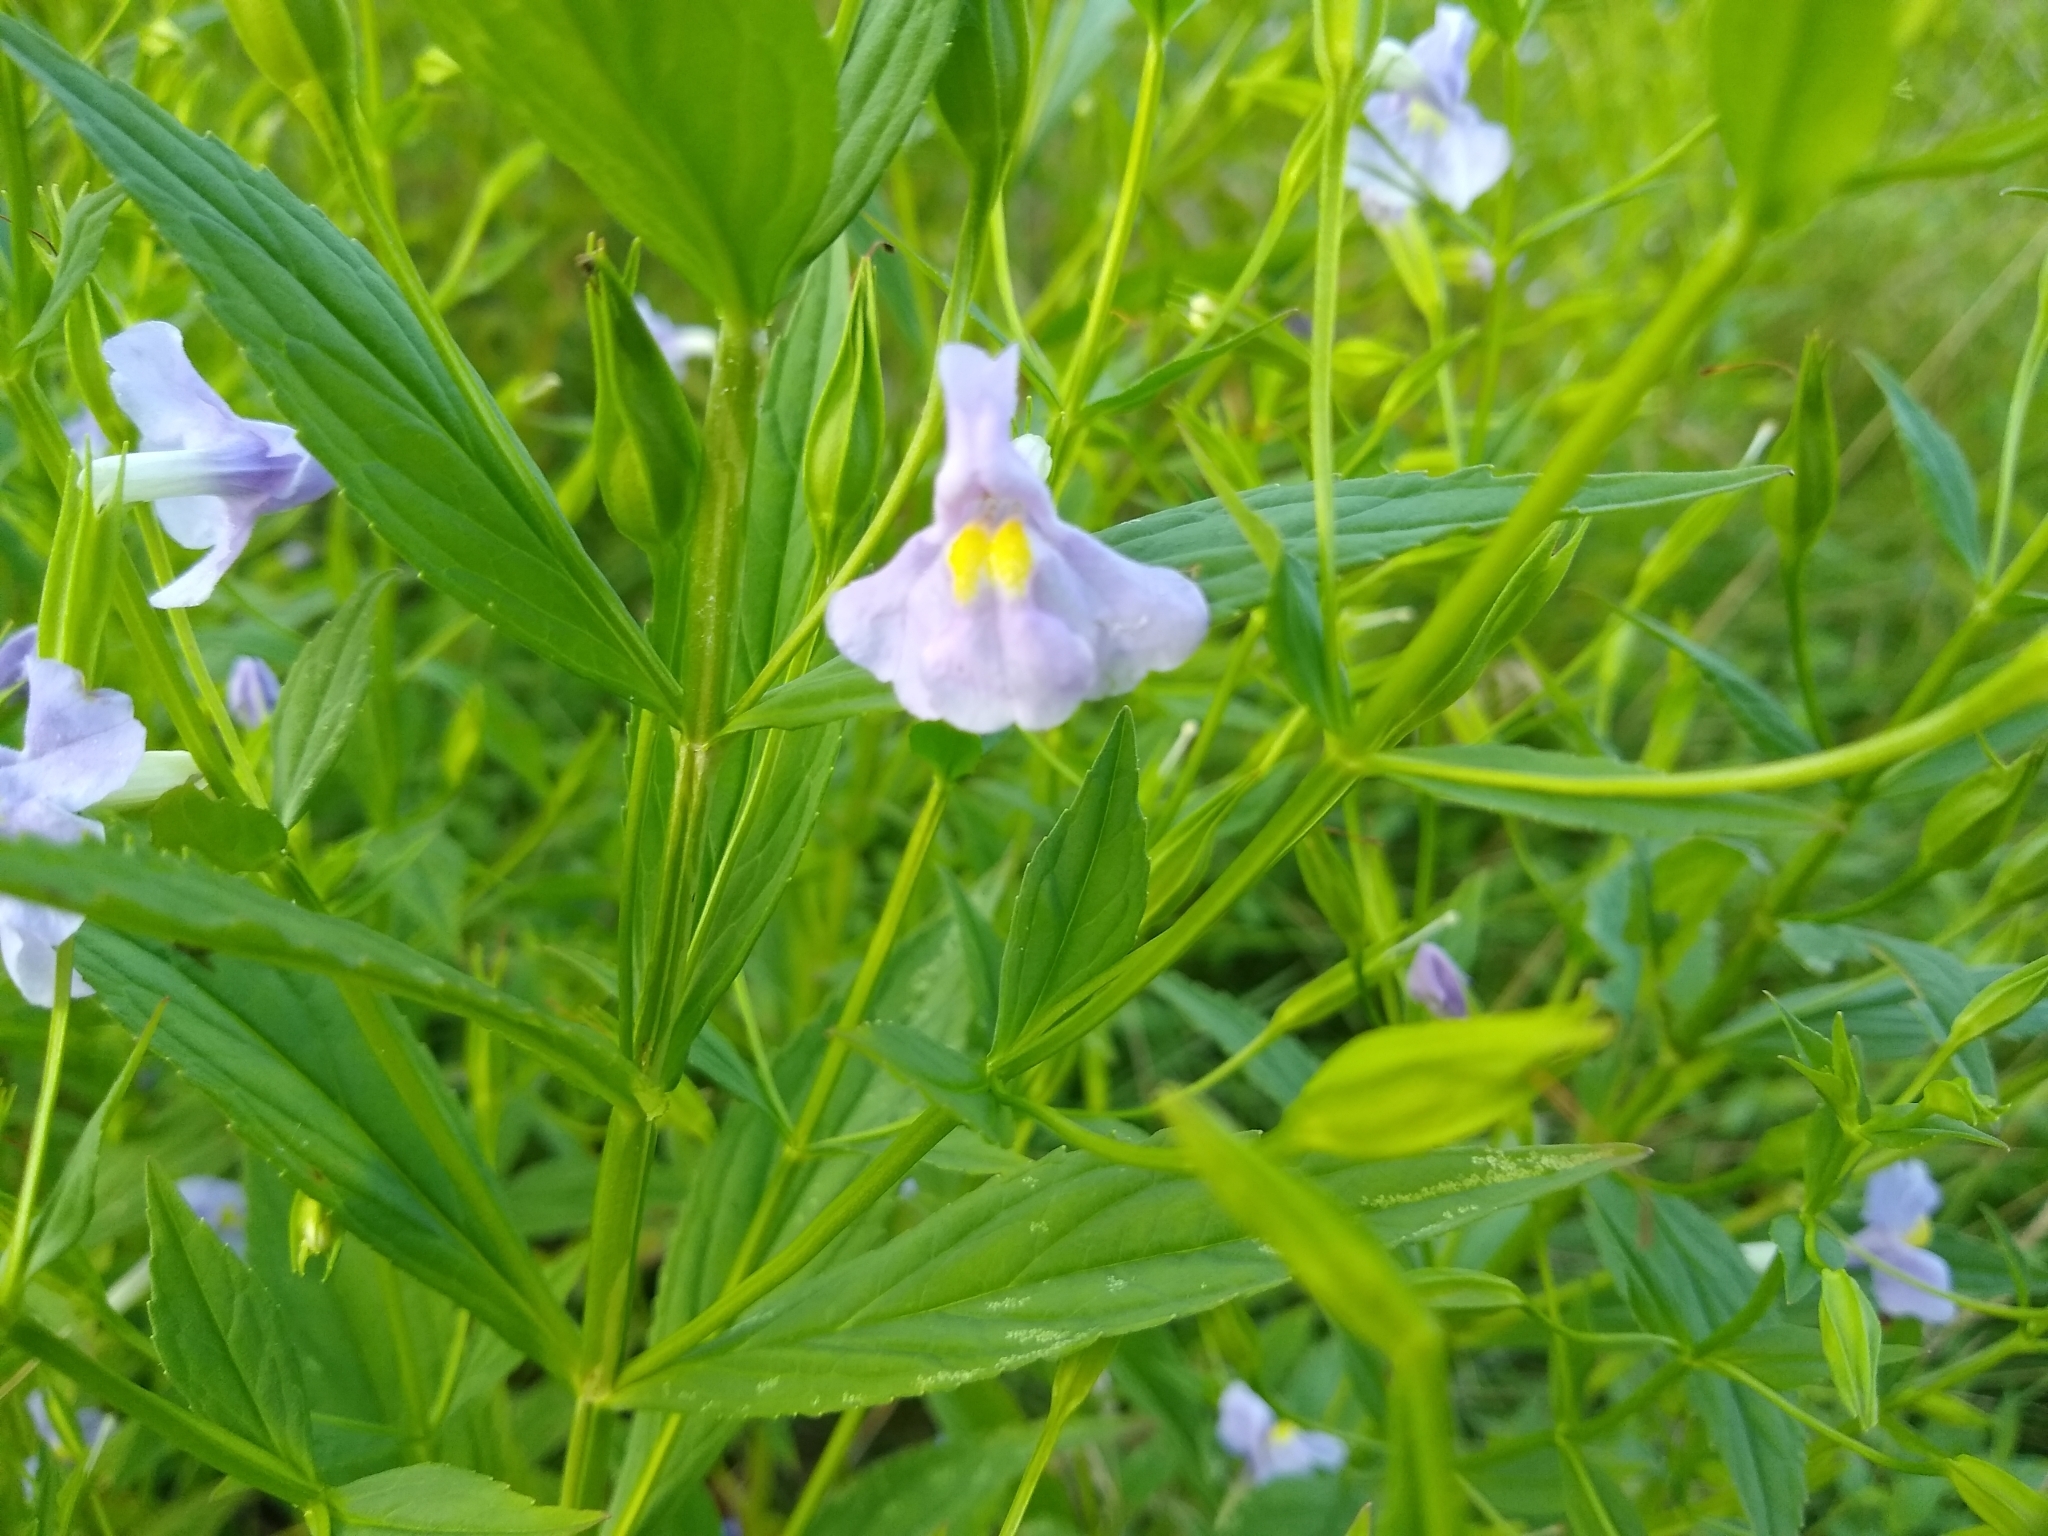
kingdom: Plantae
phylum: Tracheophyta
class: Magnoliopsida
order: Lamiales
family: Phrymaceae
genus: Mimulus
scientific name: Mimulus ringens
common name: Allegheny monkeyflower
